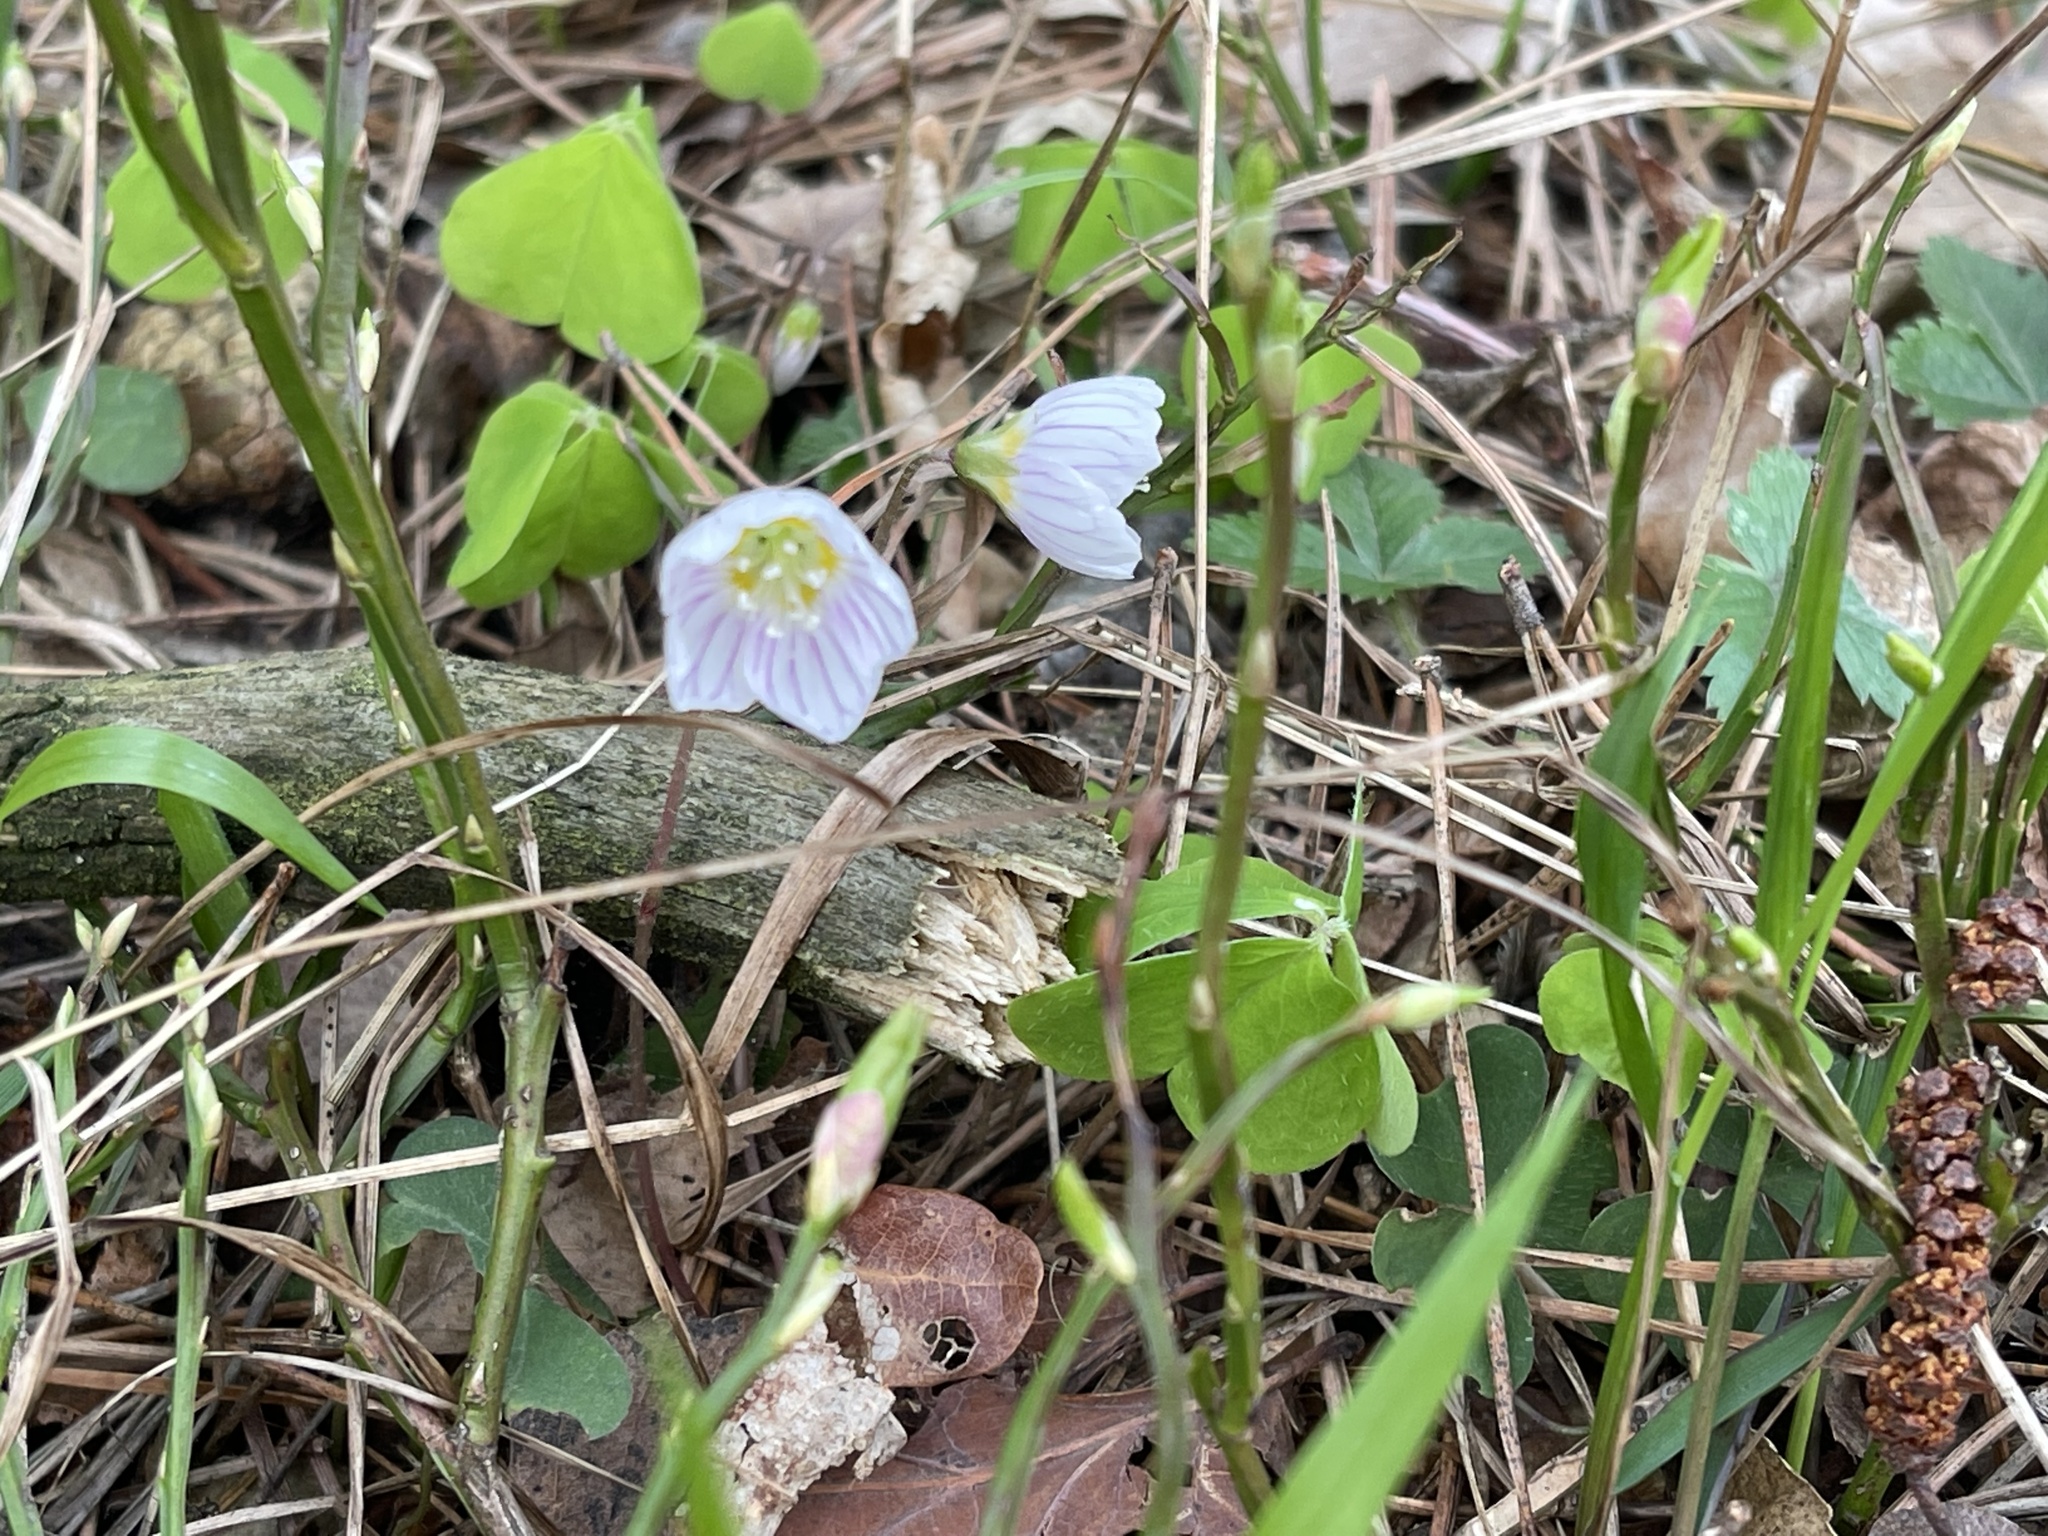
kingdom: Plantae
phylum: Tracheophyta
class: Magnoliopsida
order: Oxalidales
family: Oxalidaceae
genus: Oxalis
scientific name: Oxalis acetosella
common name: Wood-sorrel
